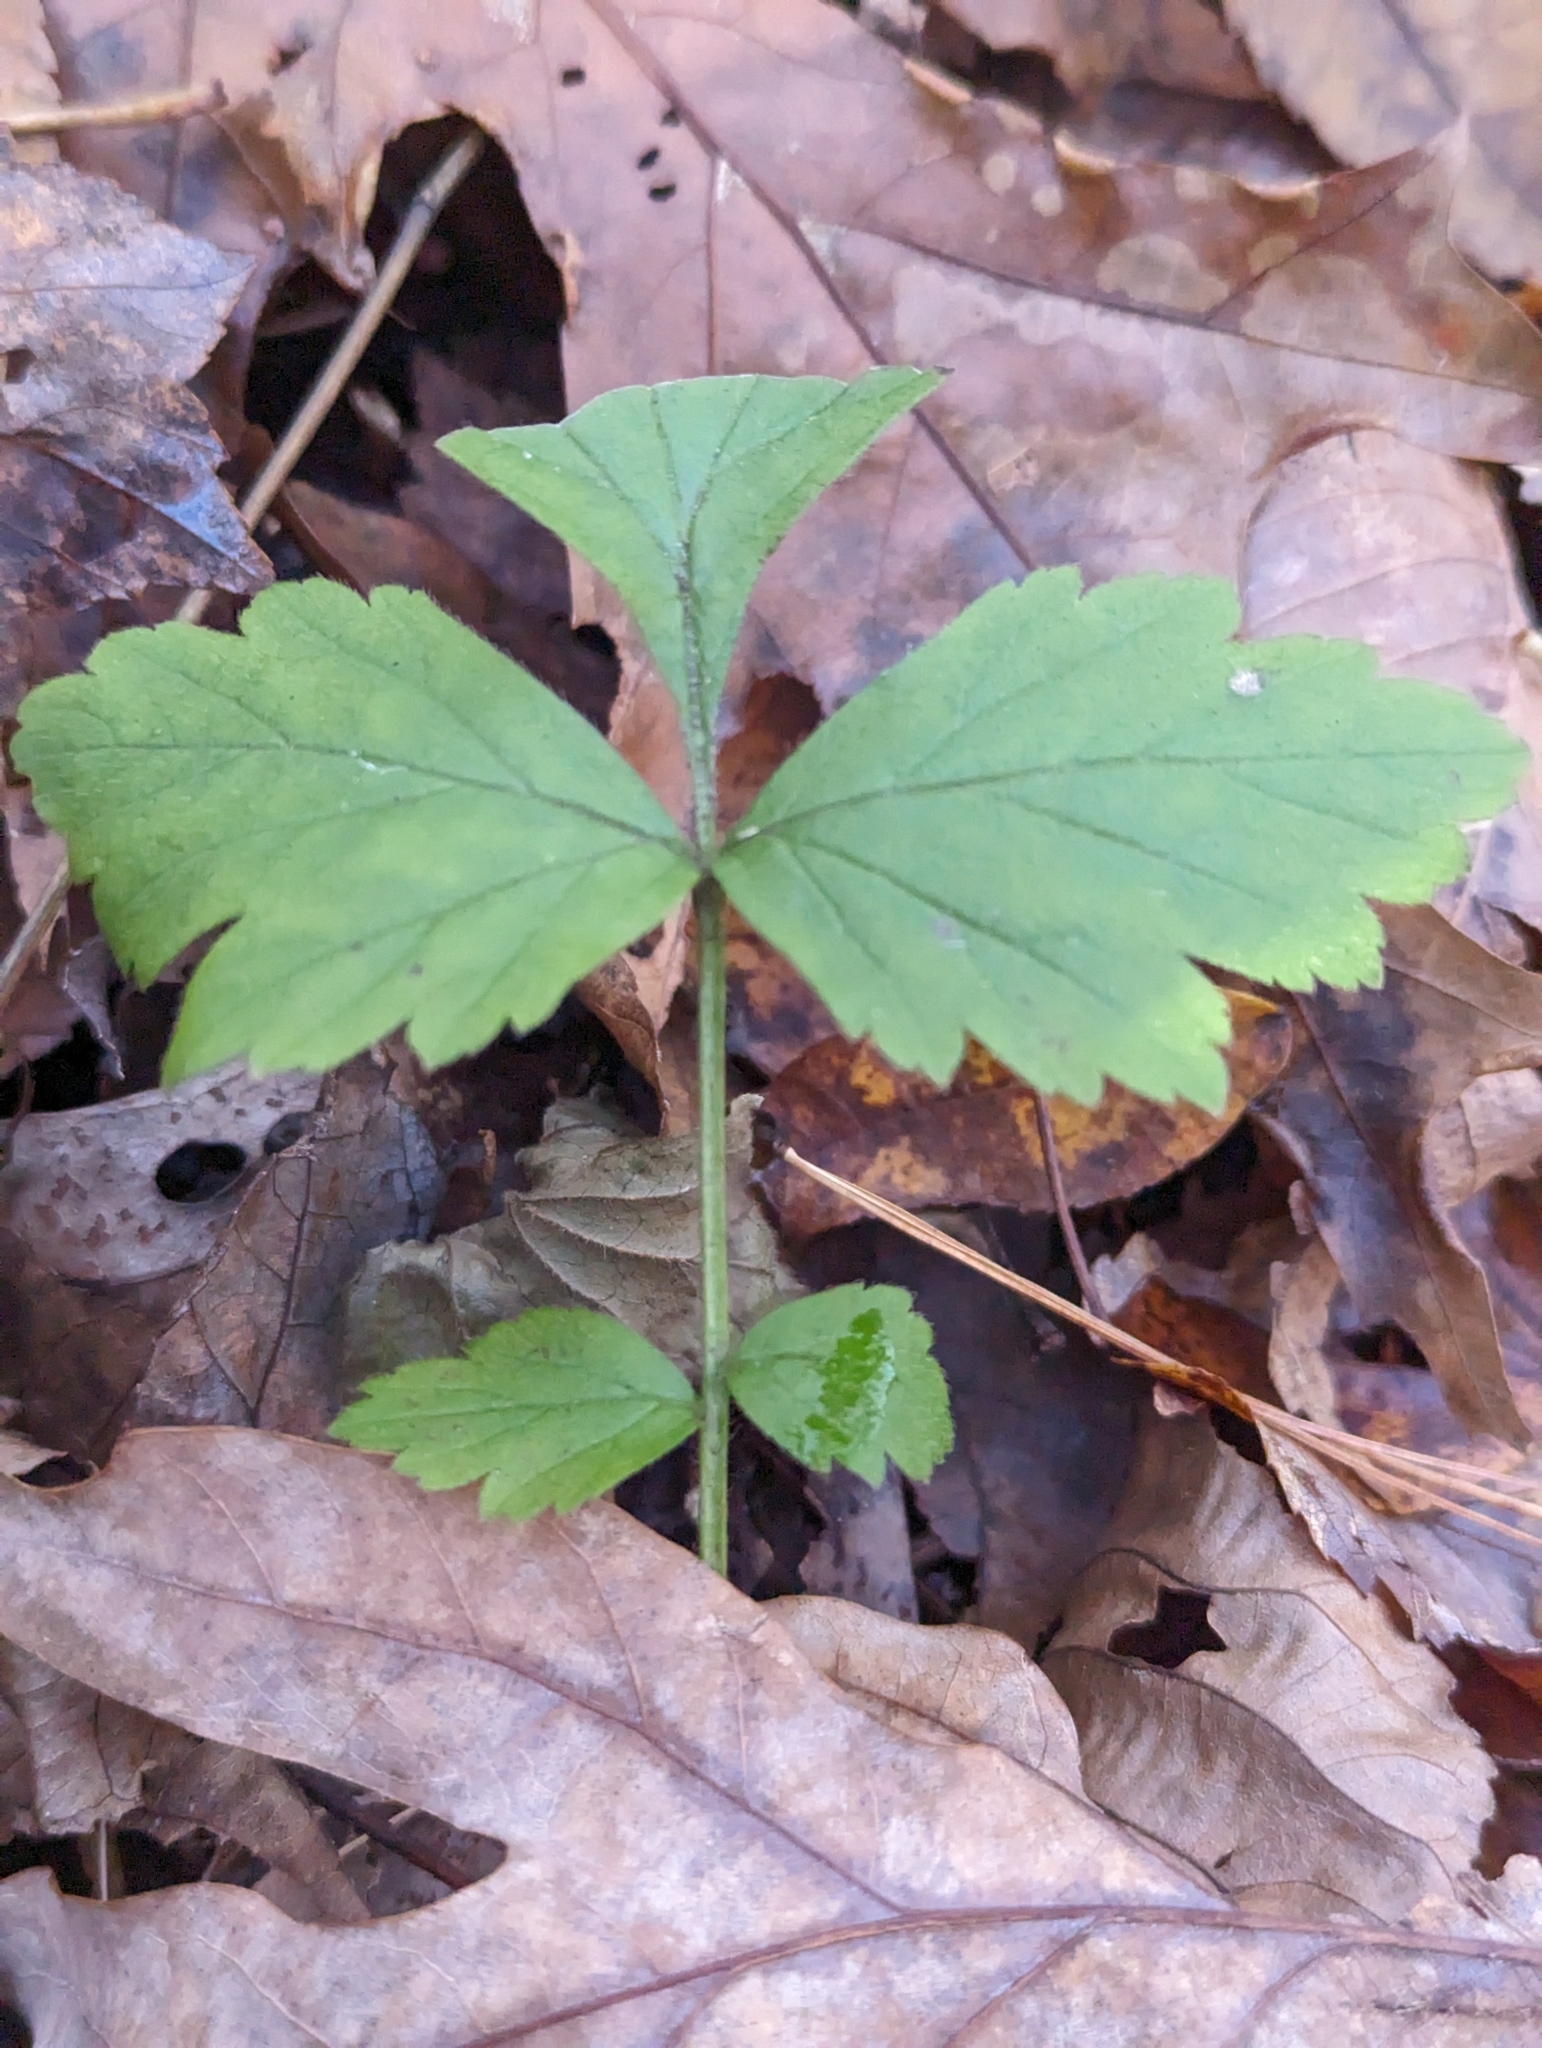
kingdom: Plantae
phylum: Tracheophyta
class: Magnoliopsida
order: Rosales
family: Rosaceae
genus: Geum
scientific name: Geum canadense
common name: White avens
